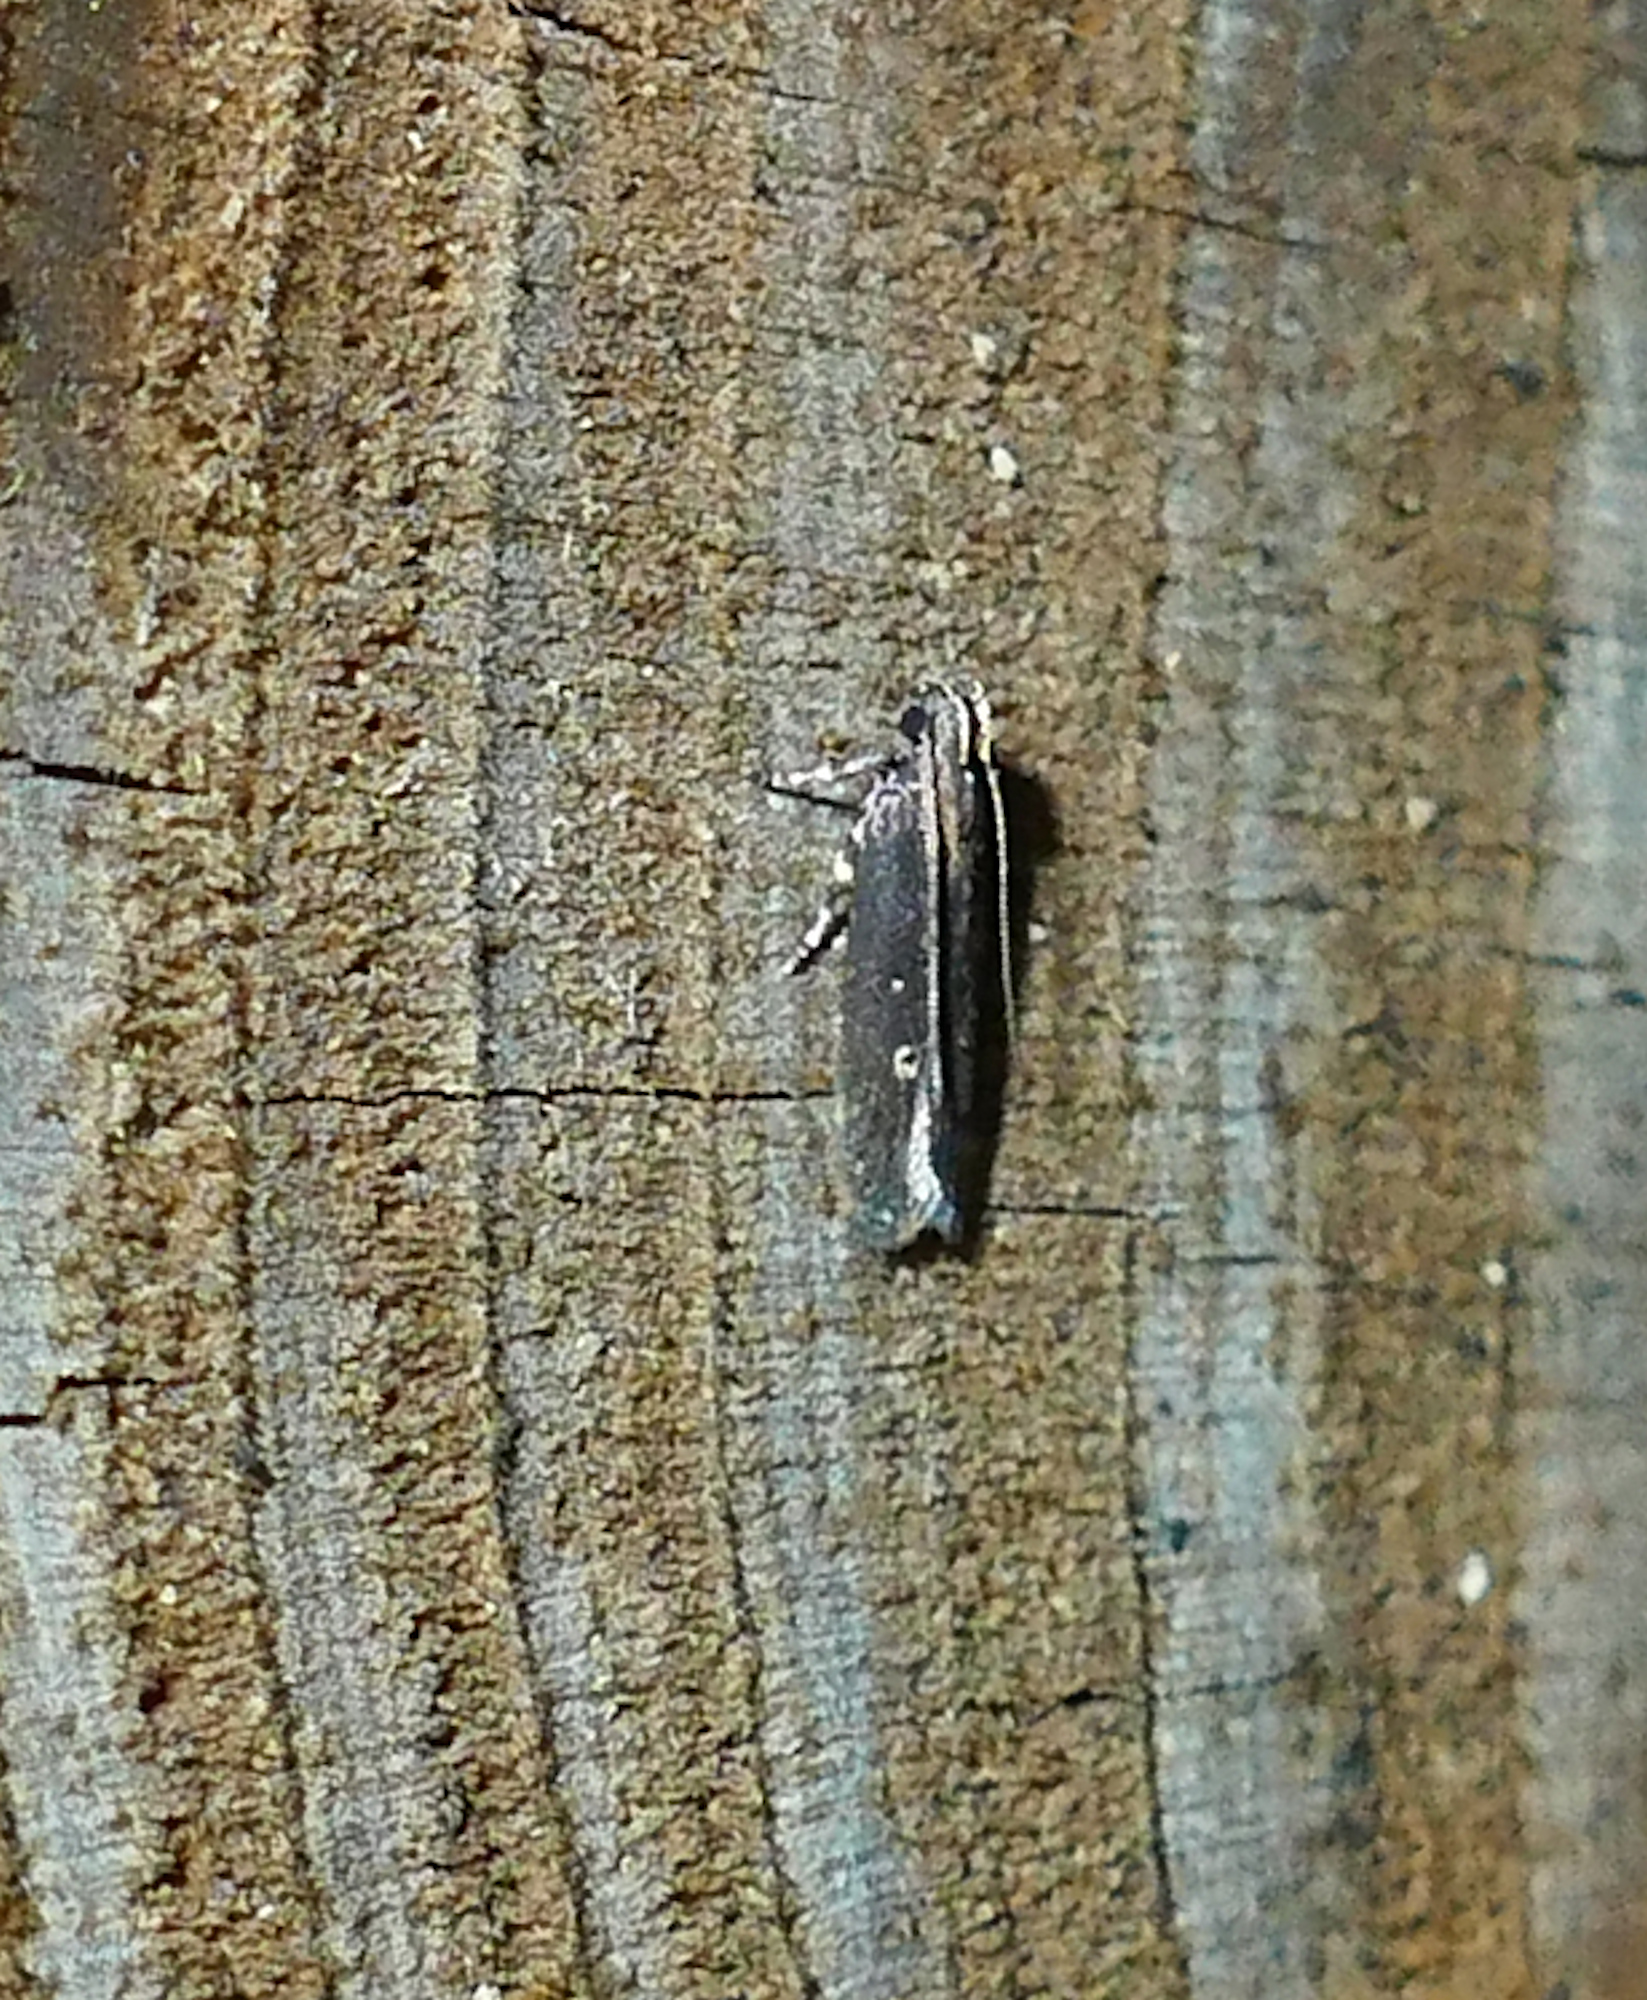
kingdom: Animalia
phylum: Arthropoda
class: Insecta
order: Lepidoptera
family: Gelechiidae
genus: Chionodes
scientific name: Chionodes discoocellella
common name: Eye-ringed chionodes moth
